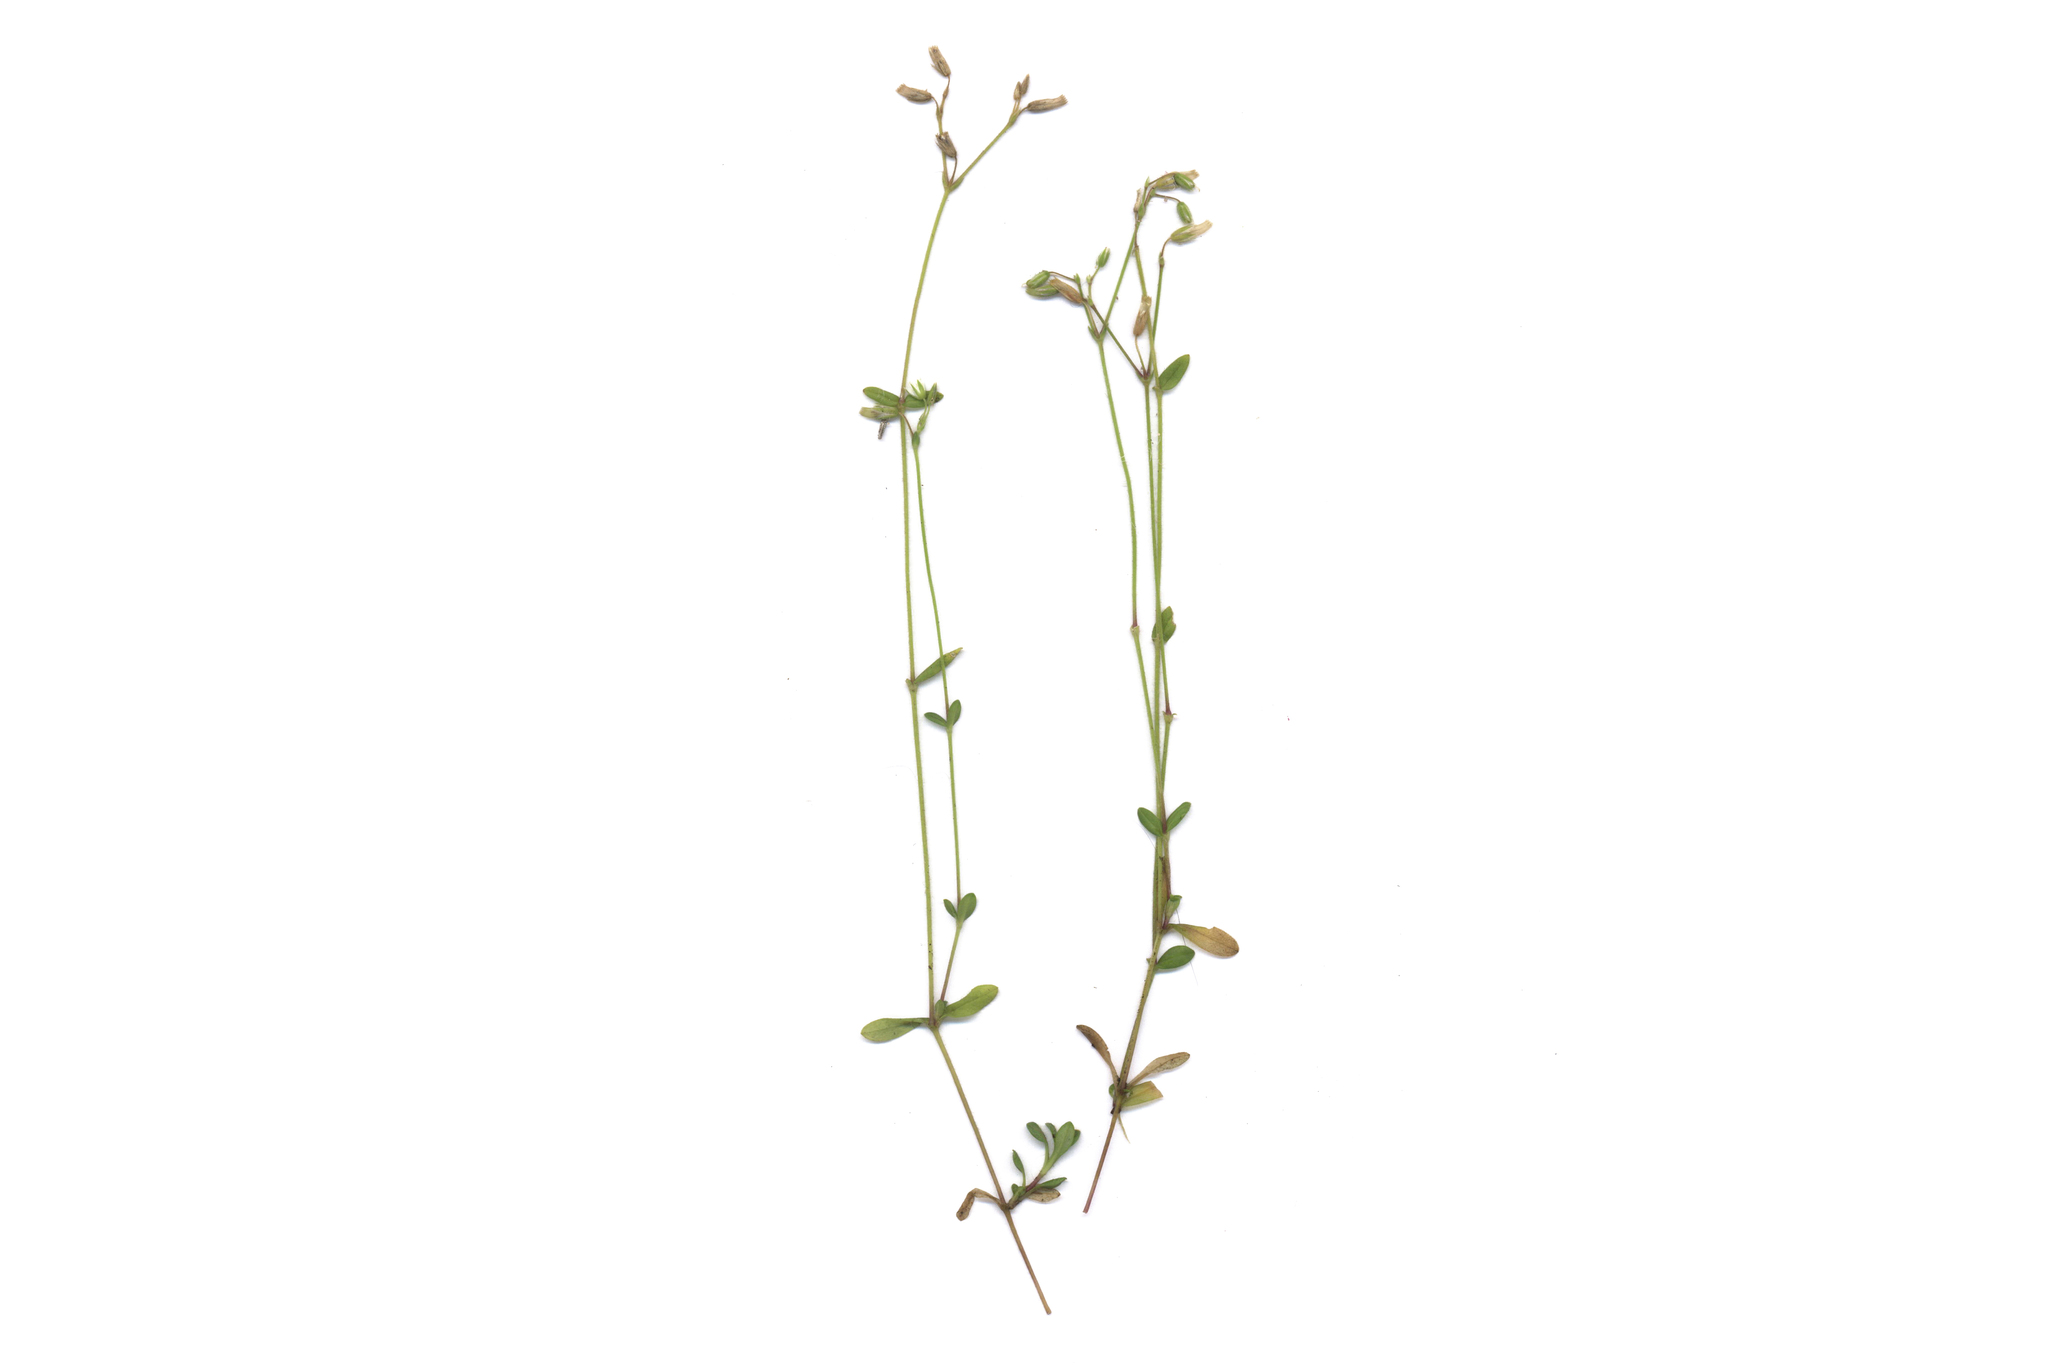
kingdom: Plantae
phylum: Tracheophyta
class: Magnoliopsida
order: Caryophyllales
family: Caryophyllaceae
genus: Cerastium
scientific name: Cerastium holosteoides
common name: Big chickweed
